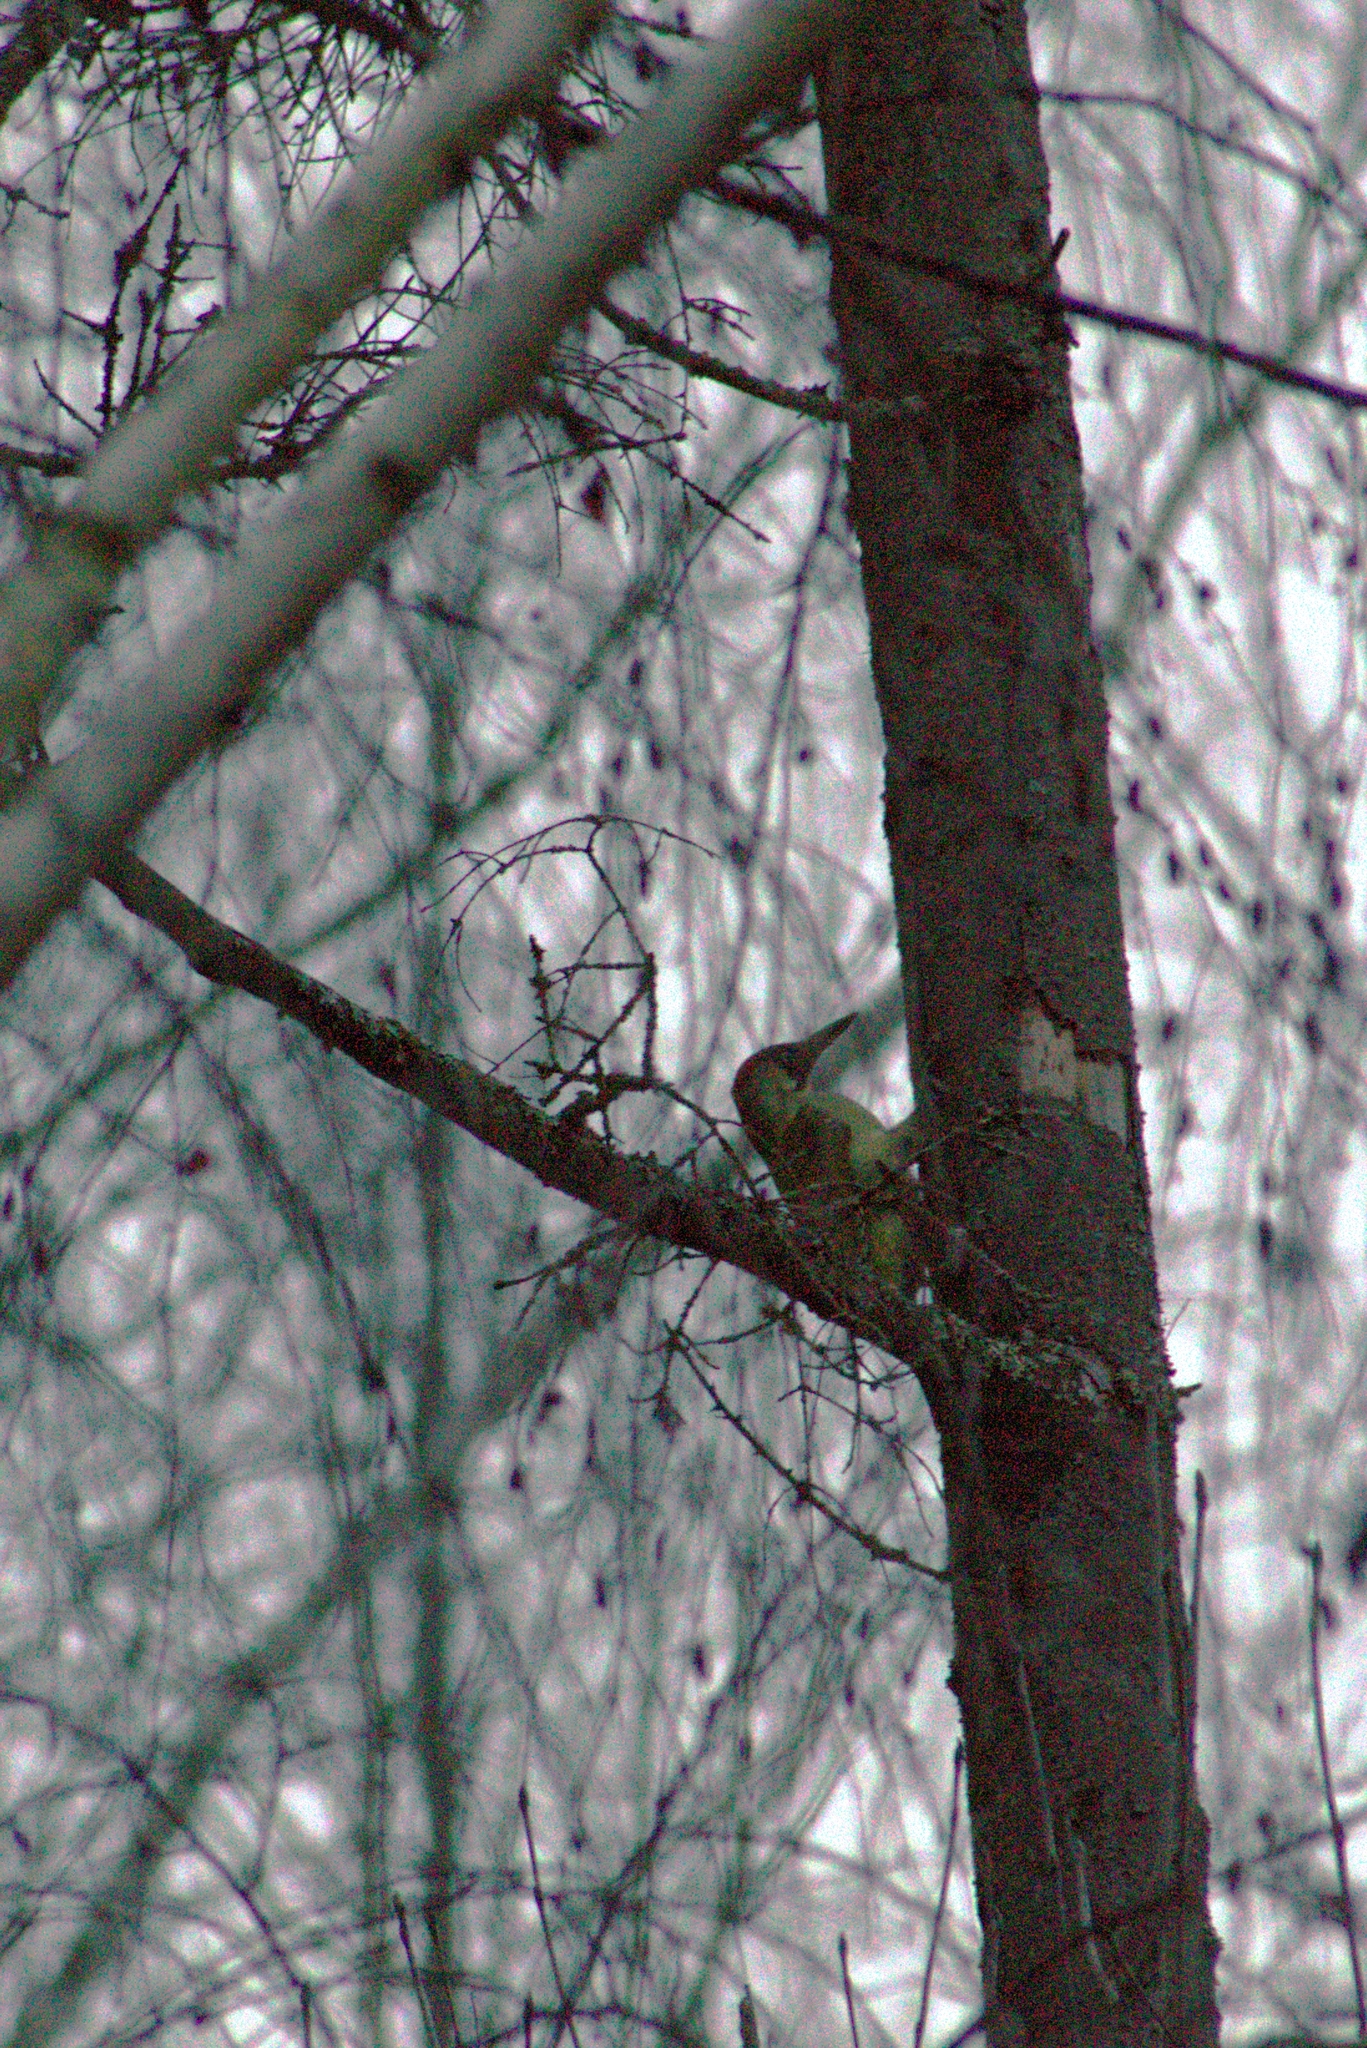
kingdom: Animalia
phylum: Chordata
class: Aves
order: Piciformes
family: Picidae
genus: Picus
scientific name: Picus viridis
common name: European green woodpecker
